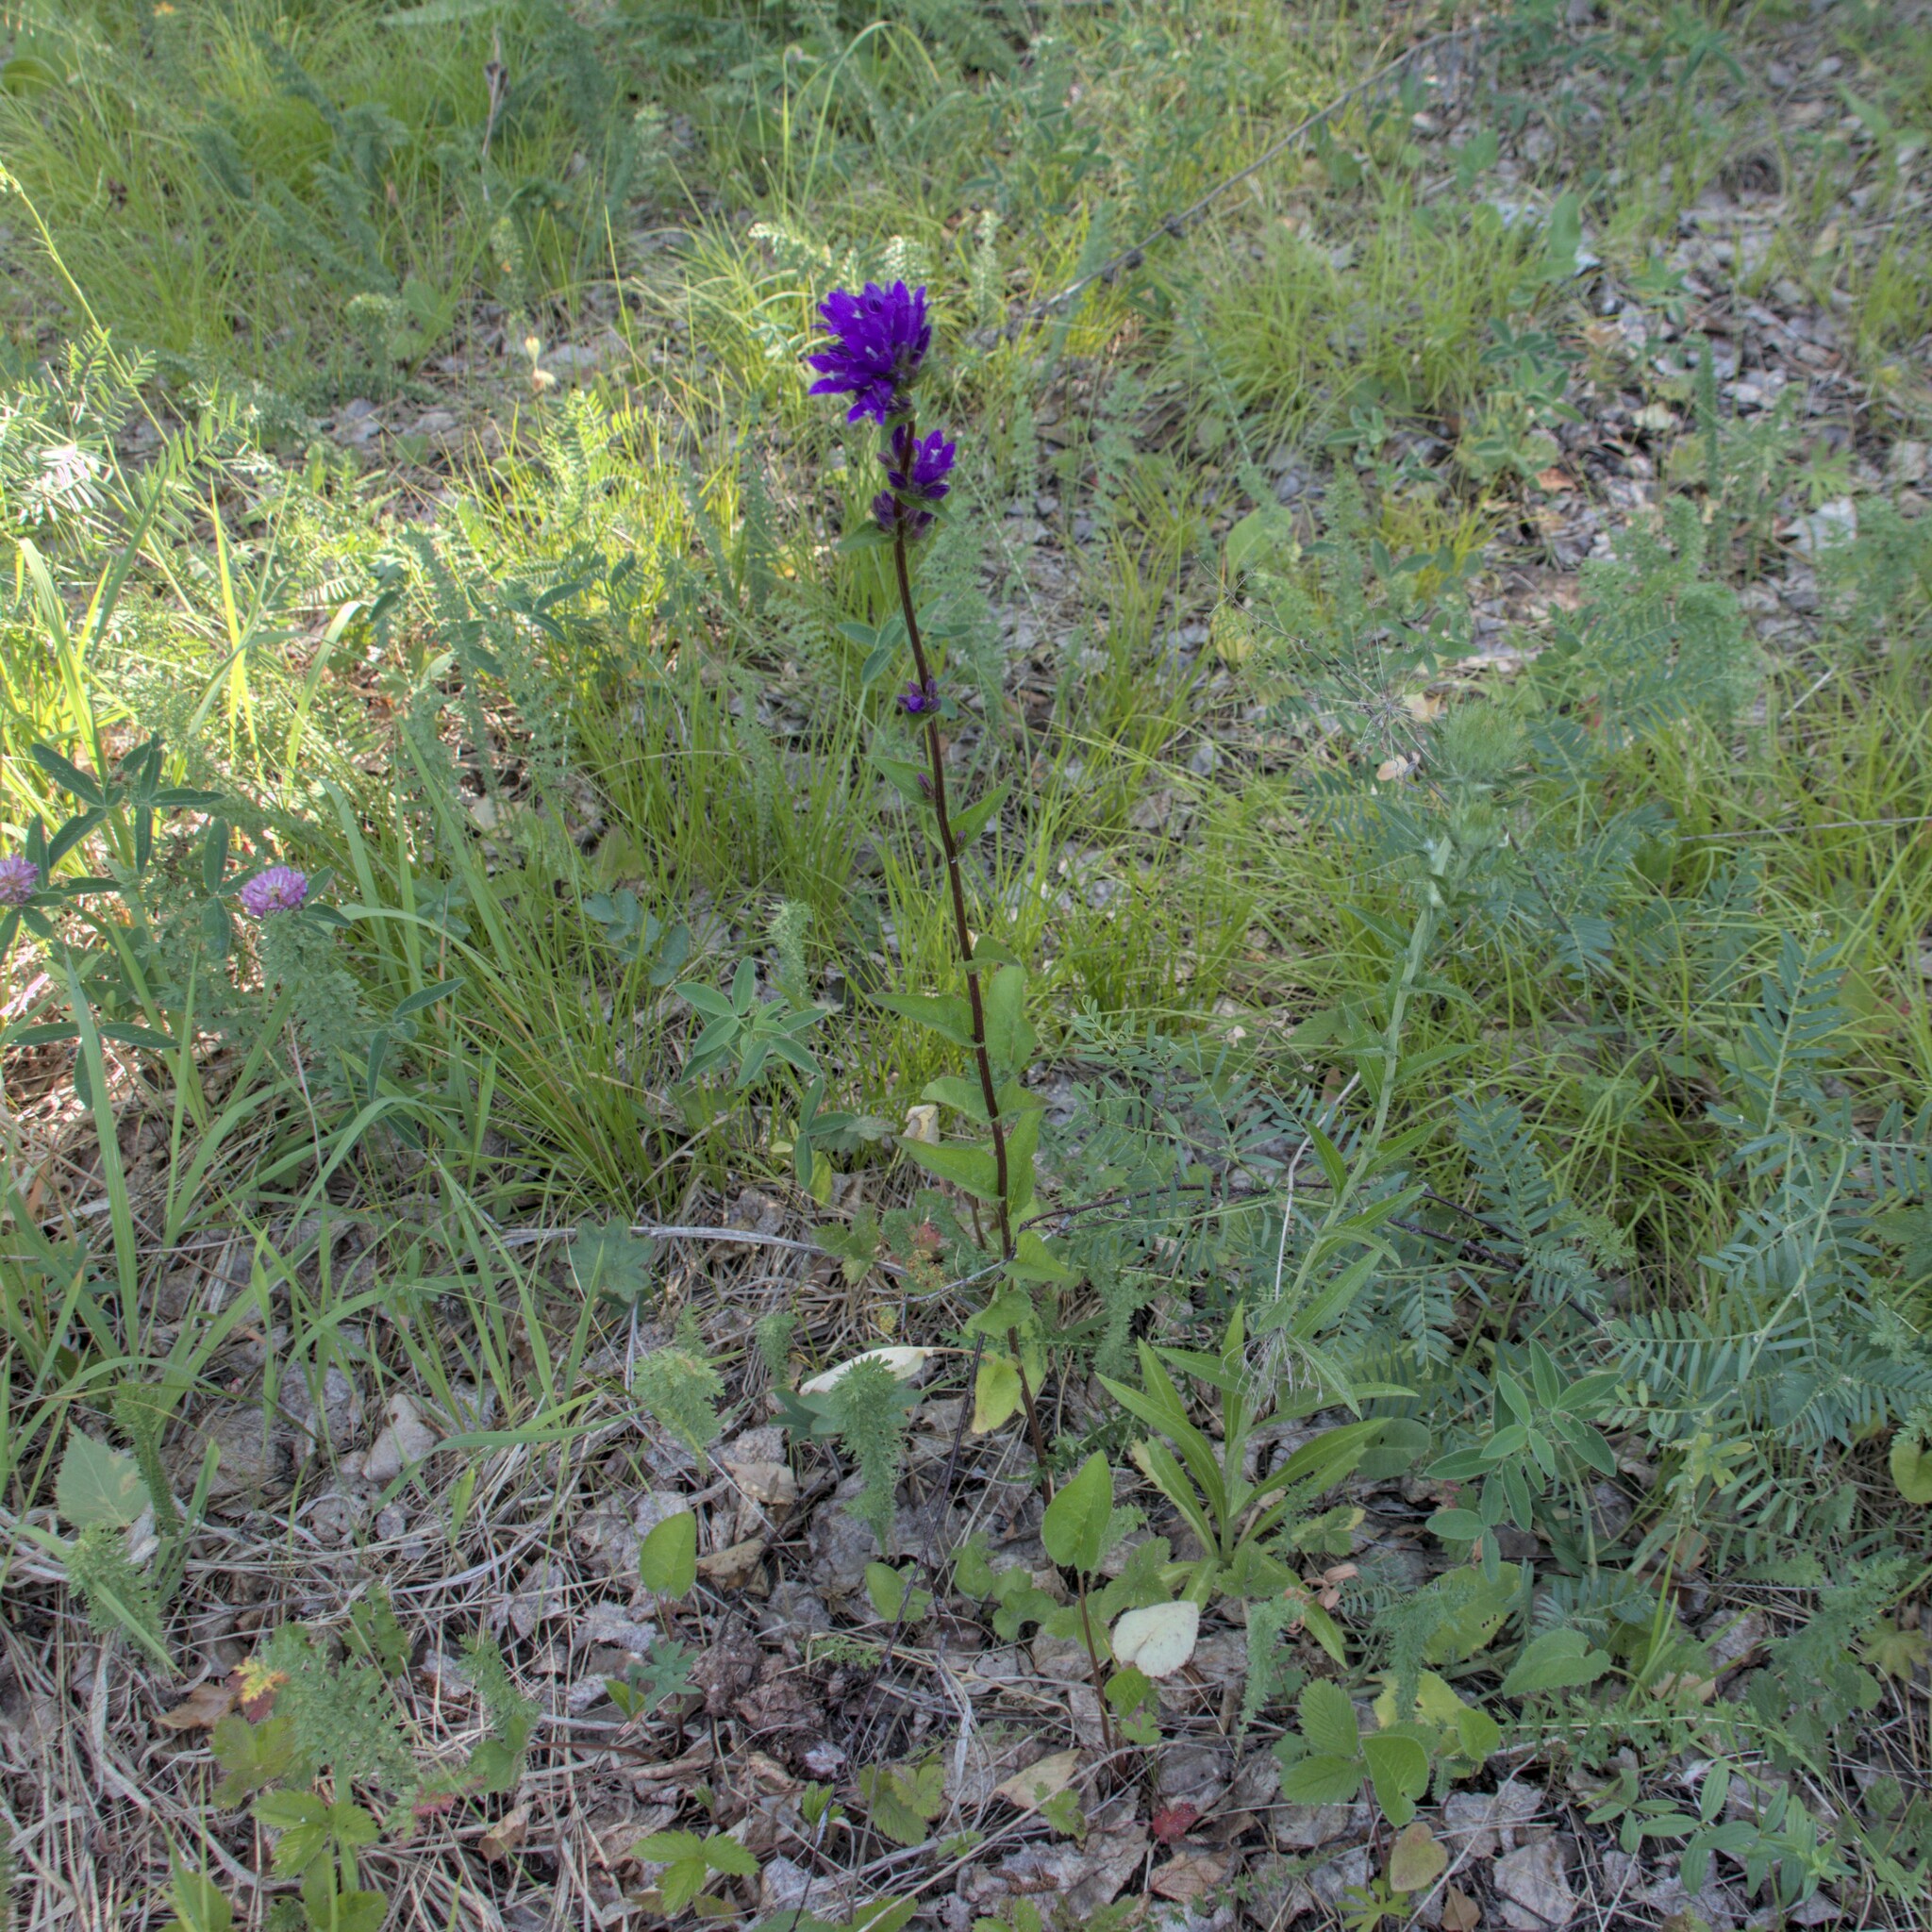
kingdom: Plantae
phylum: Tracheophyta
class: Magnoliopsida
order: Asterales
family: Campanulaceae
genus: Campanula
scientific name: Campanula glomerata
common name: Clustered bellflower
